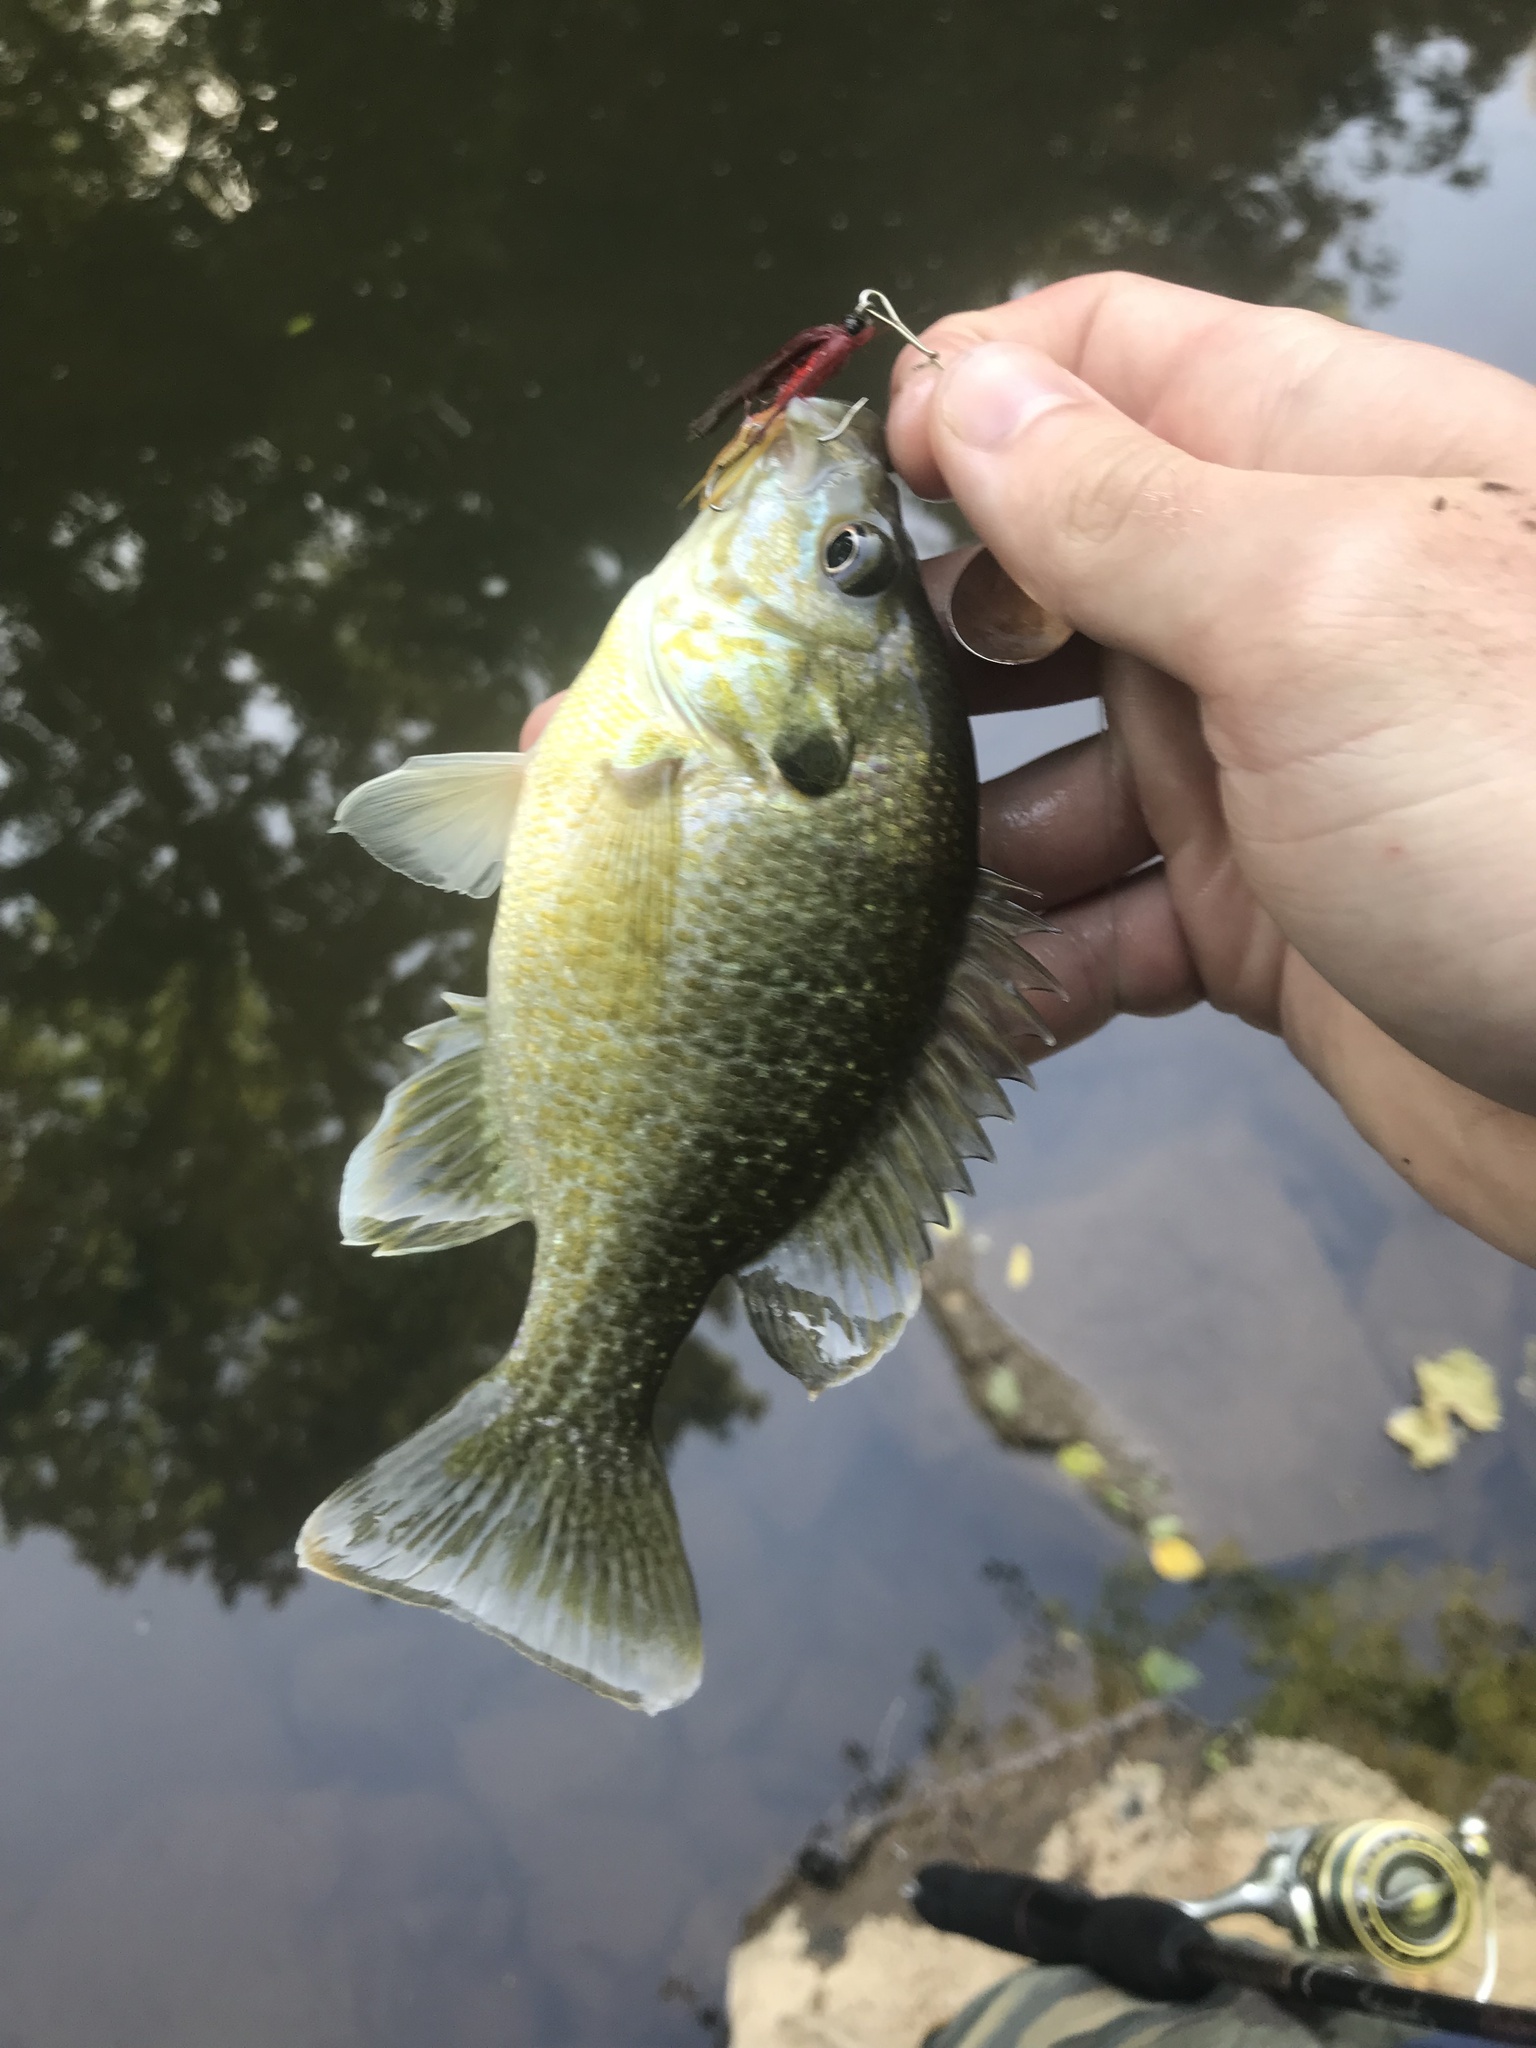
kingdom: Animalia
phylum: Chordata
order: Perciformes
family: Centrarchidae
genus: Lepomis
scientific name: Lepomis
